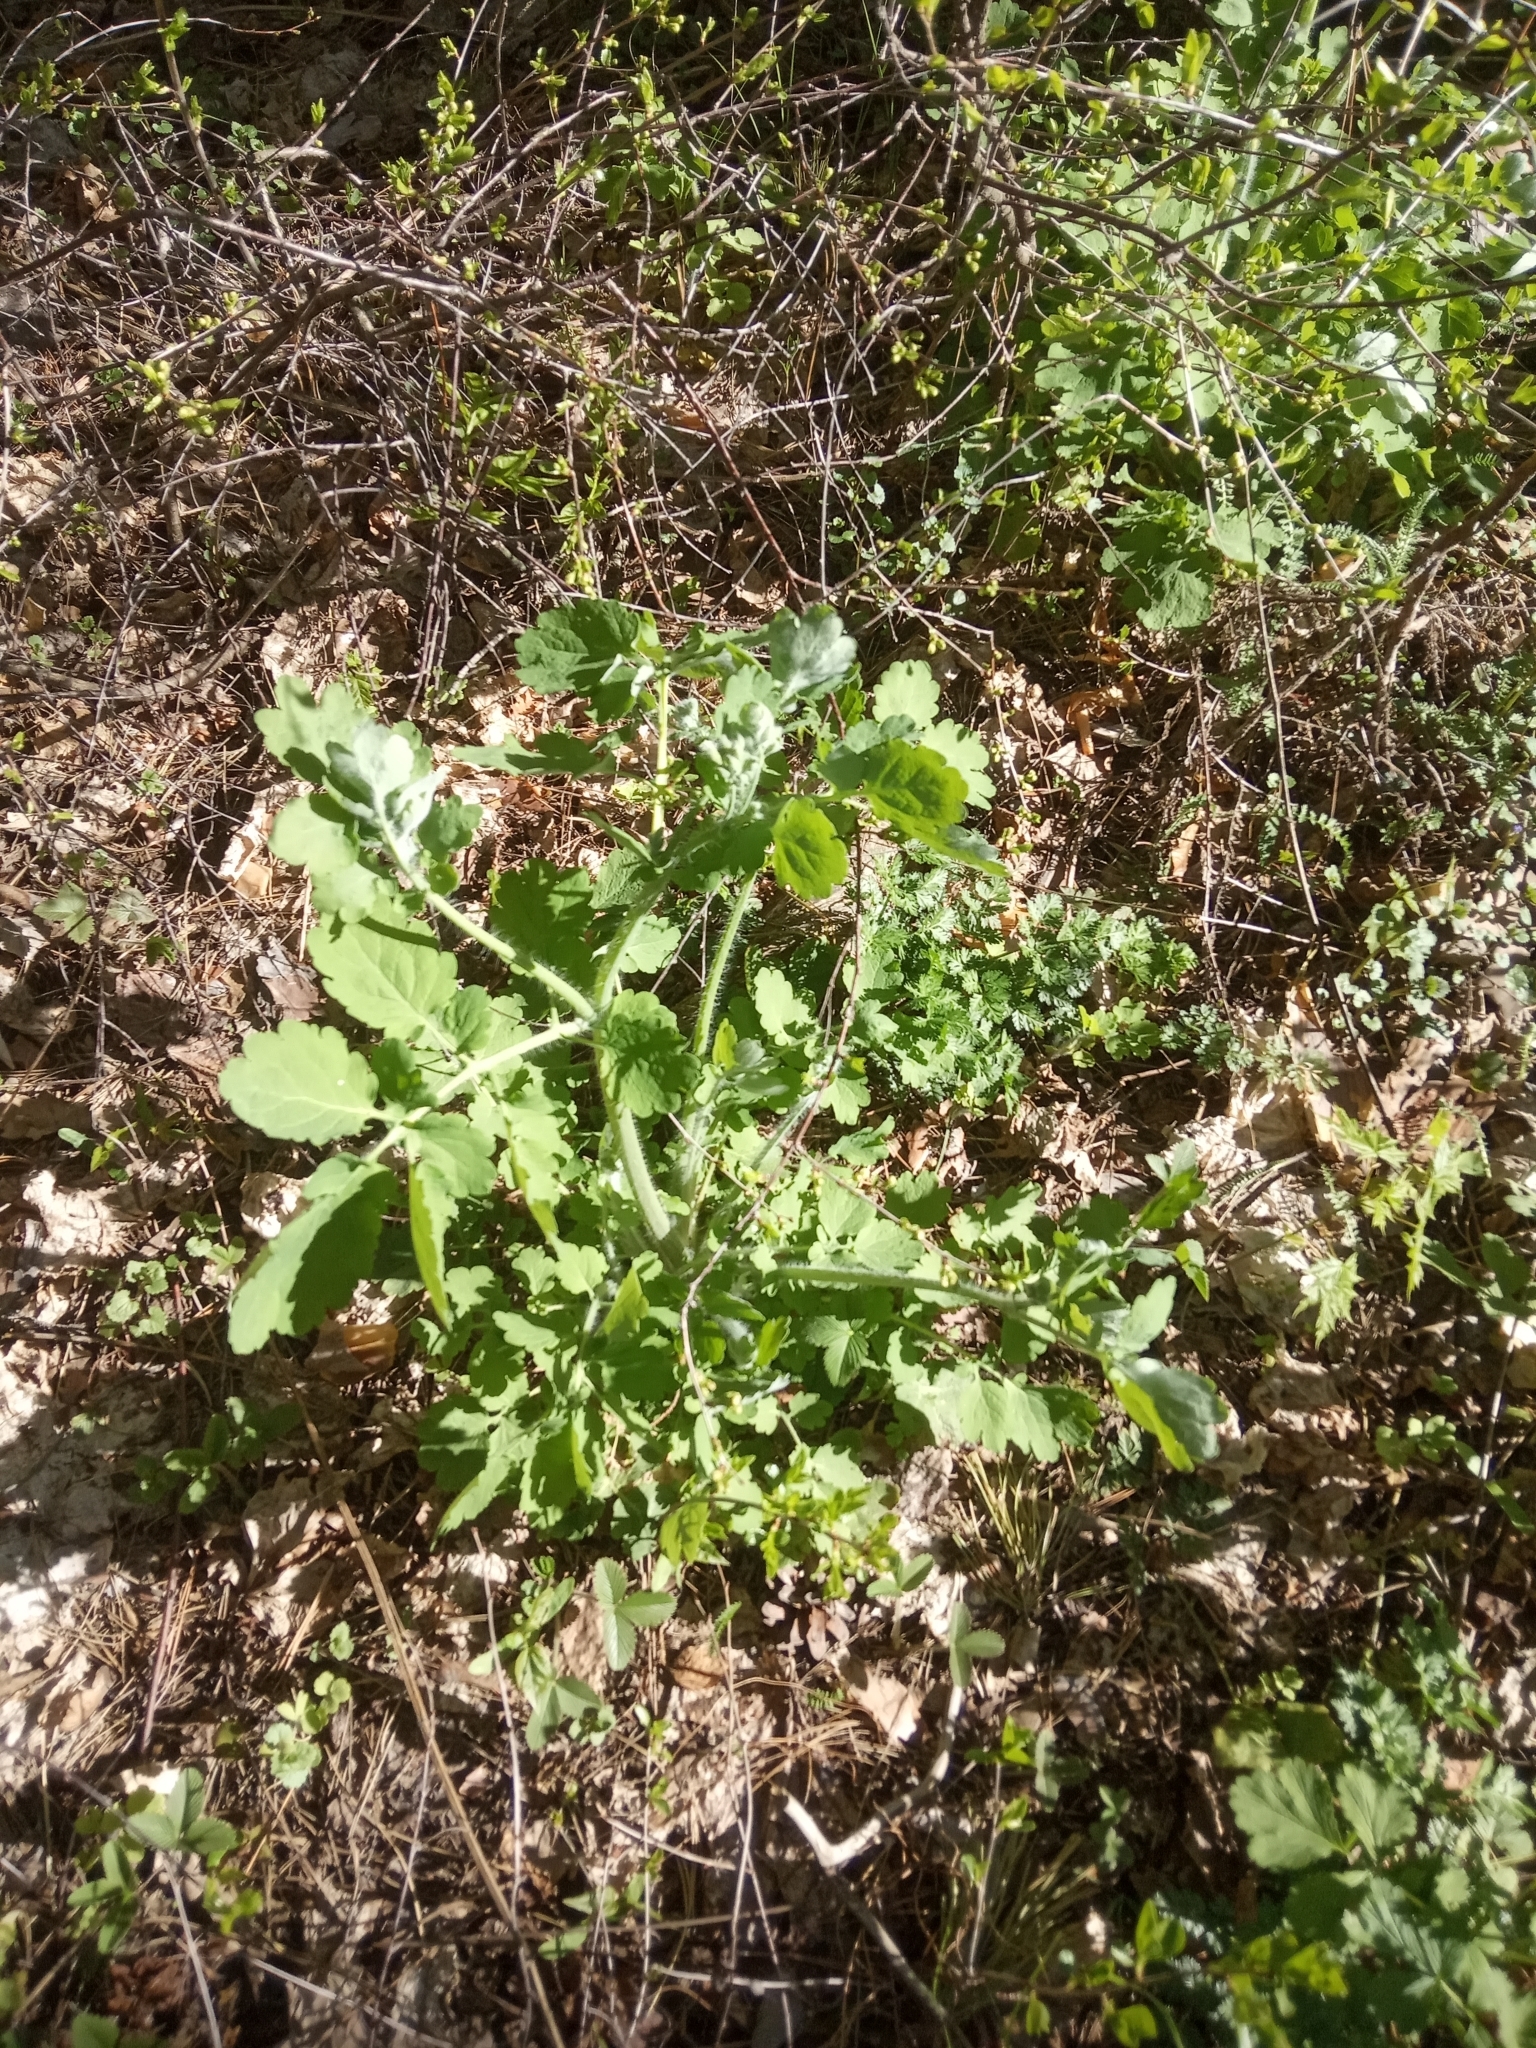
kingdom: Plantae
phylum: Tracheophyta
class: Magnoliopsida
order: Ranunculales
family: Papaveraceae
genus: Chelidonium
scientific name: Chelidonium majus
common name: Greater celandine
